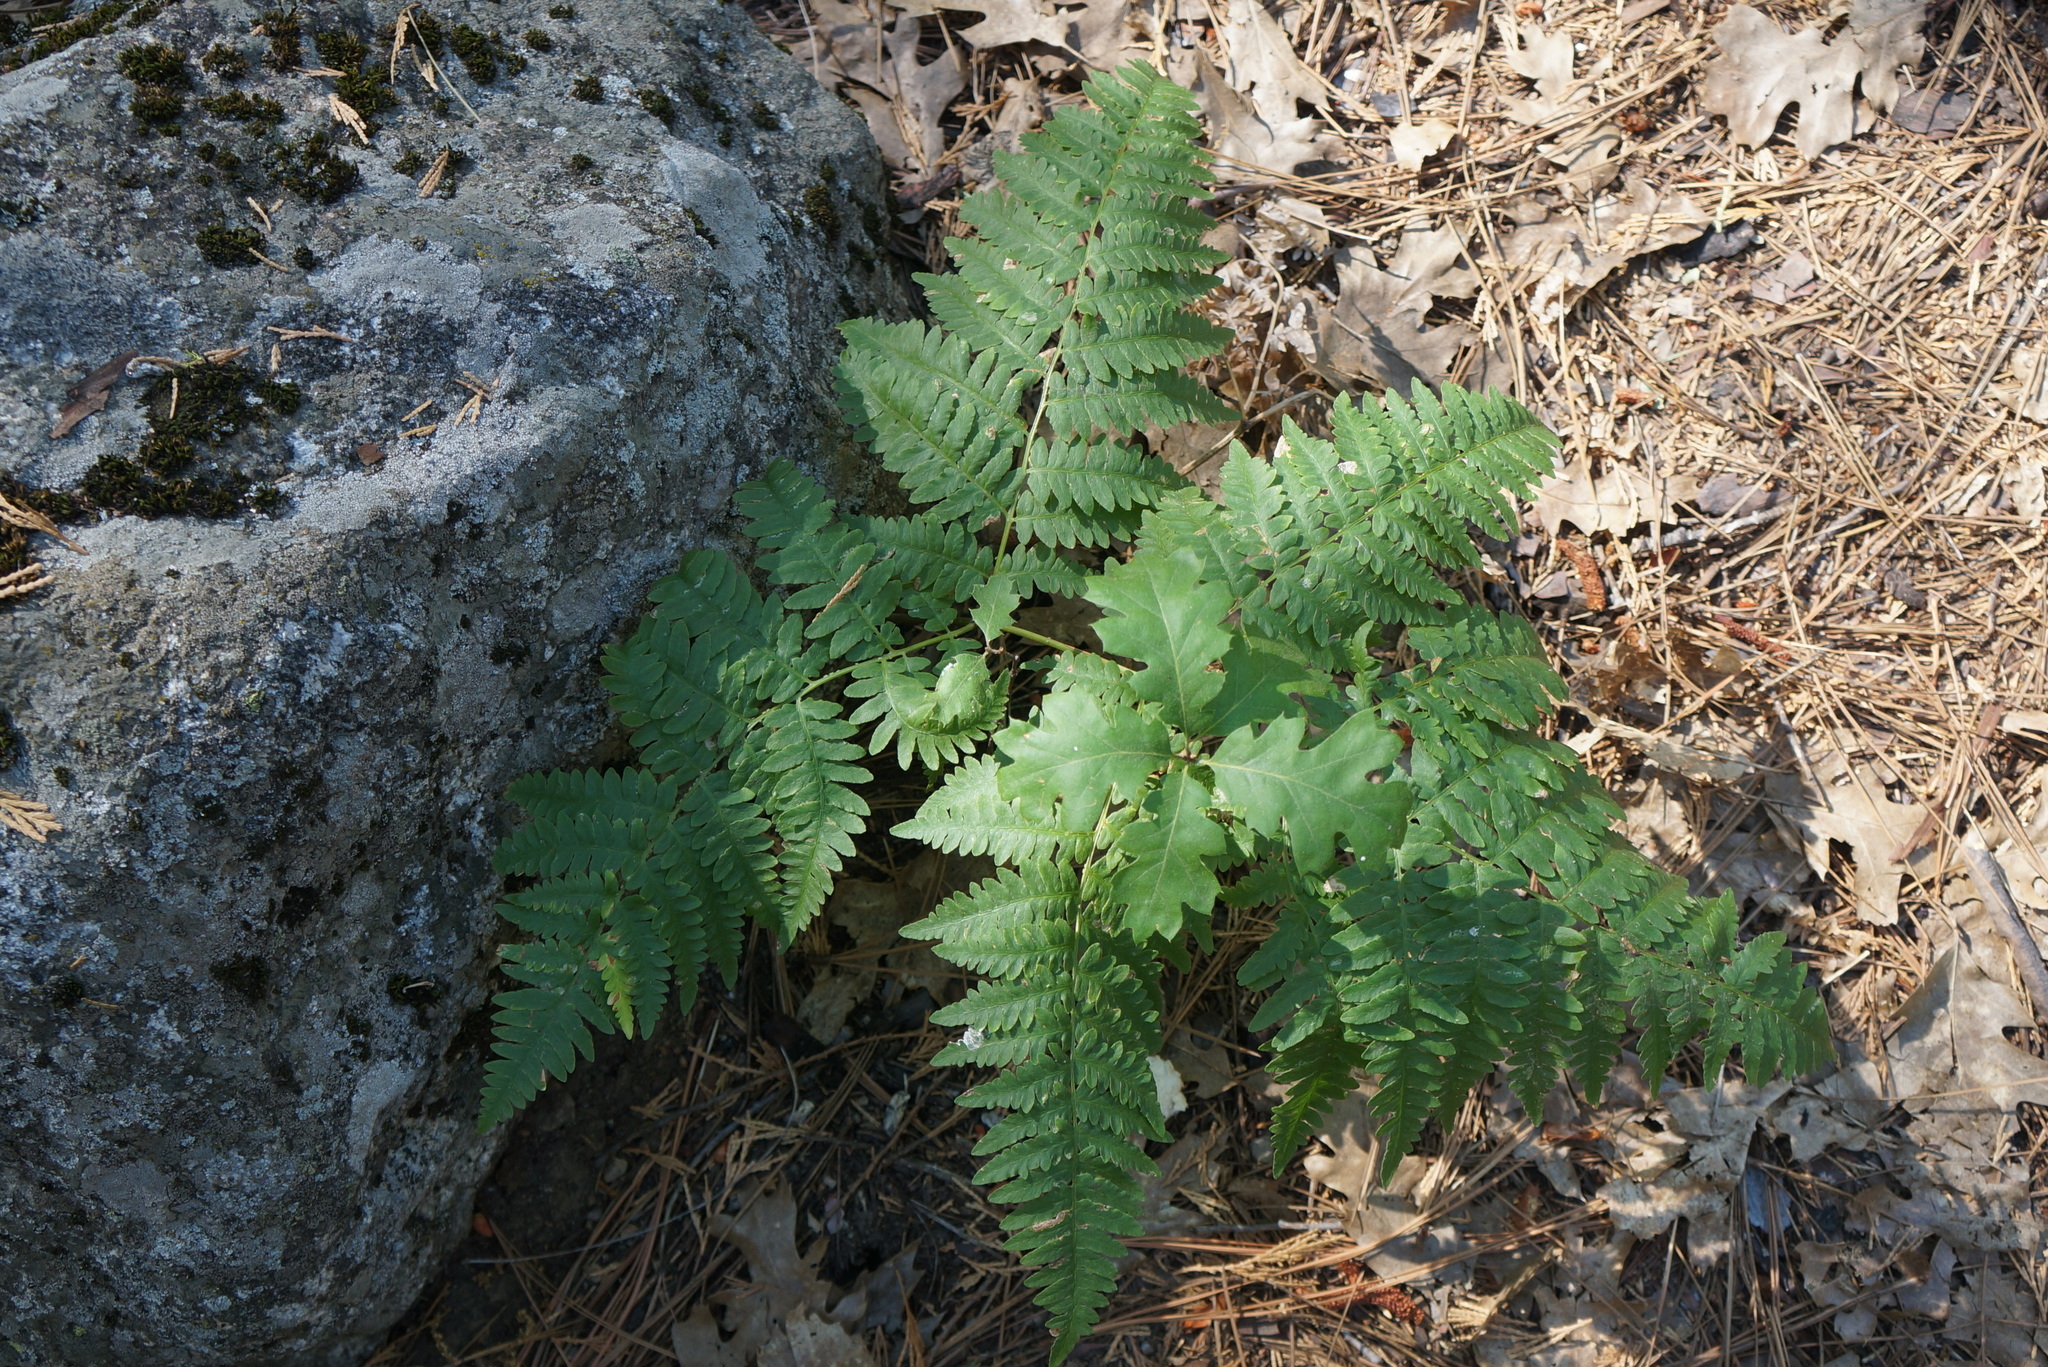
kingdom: Plantae
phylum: Tracheophyta
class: Polypodiopsida
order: Polypodiales
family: Dennstaedtiaceae
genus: Pteridium
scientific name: Pteridium aquilinum
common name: Bracken
